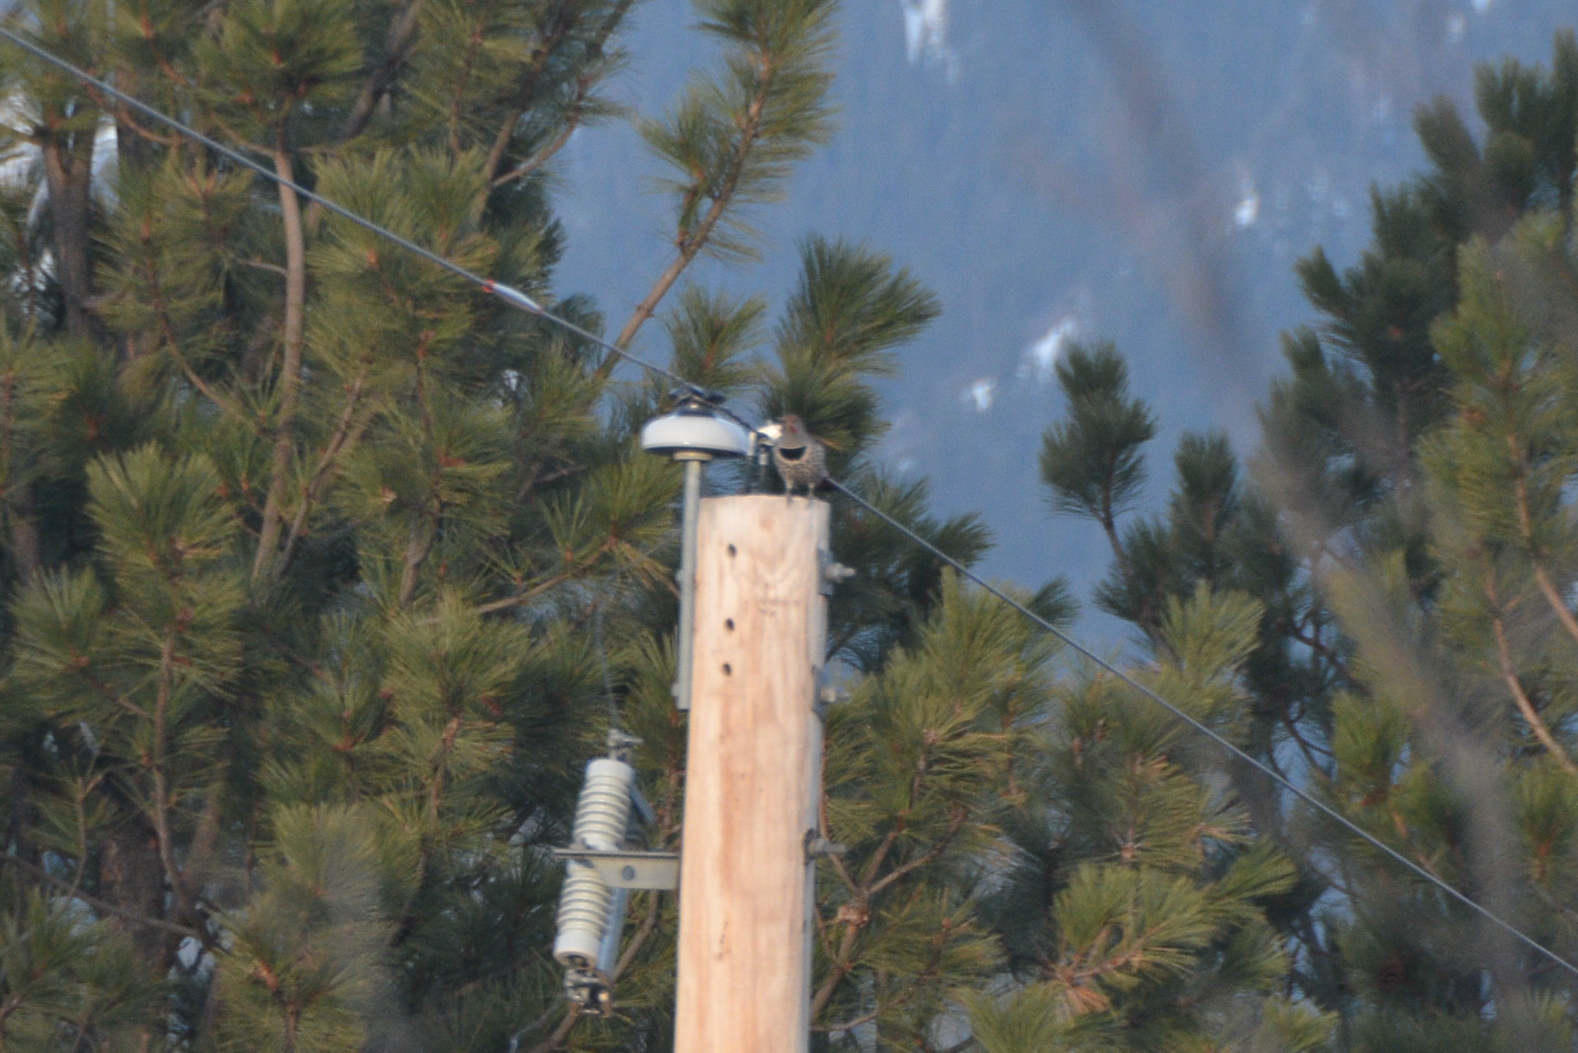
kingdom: Animalia
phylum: Chordata
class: Aves
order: Piciformes
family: Picidae
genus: Colaptes
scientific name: Colaptes auratus
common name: Northern flicker
